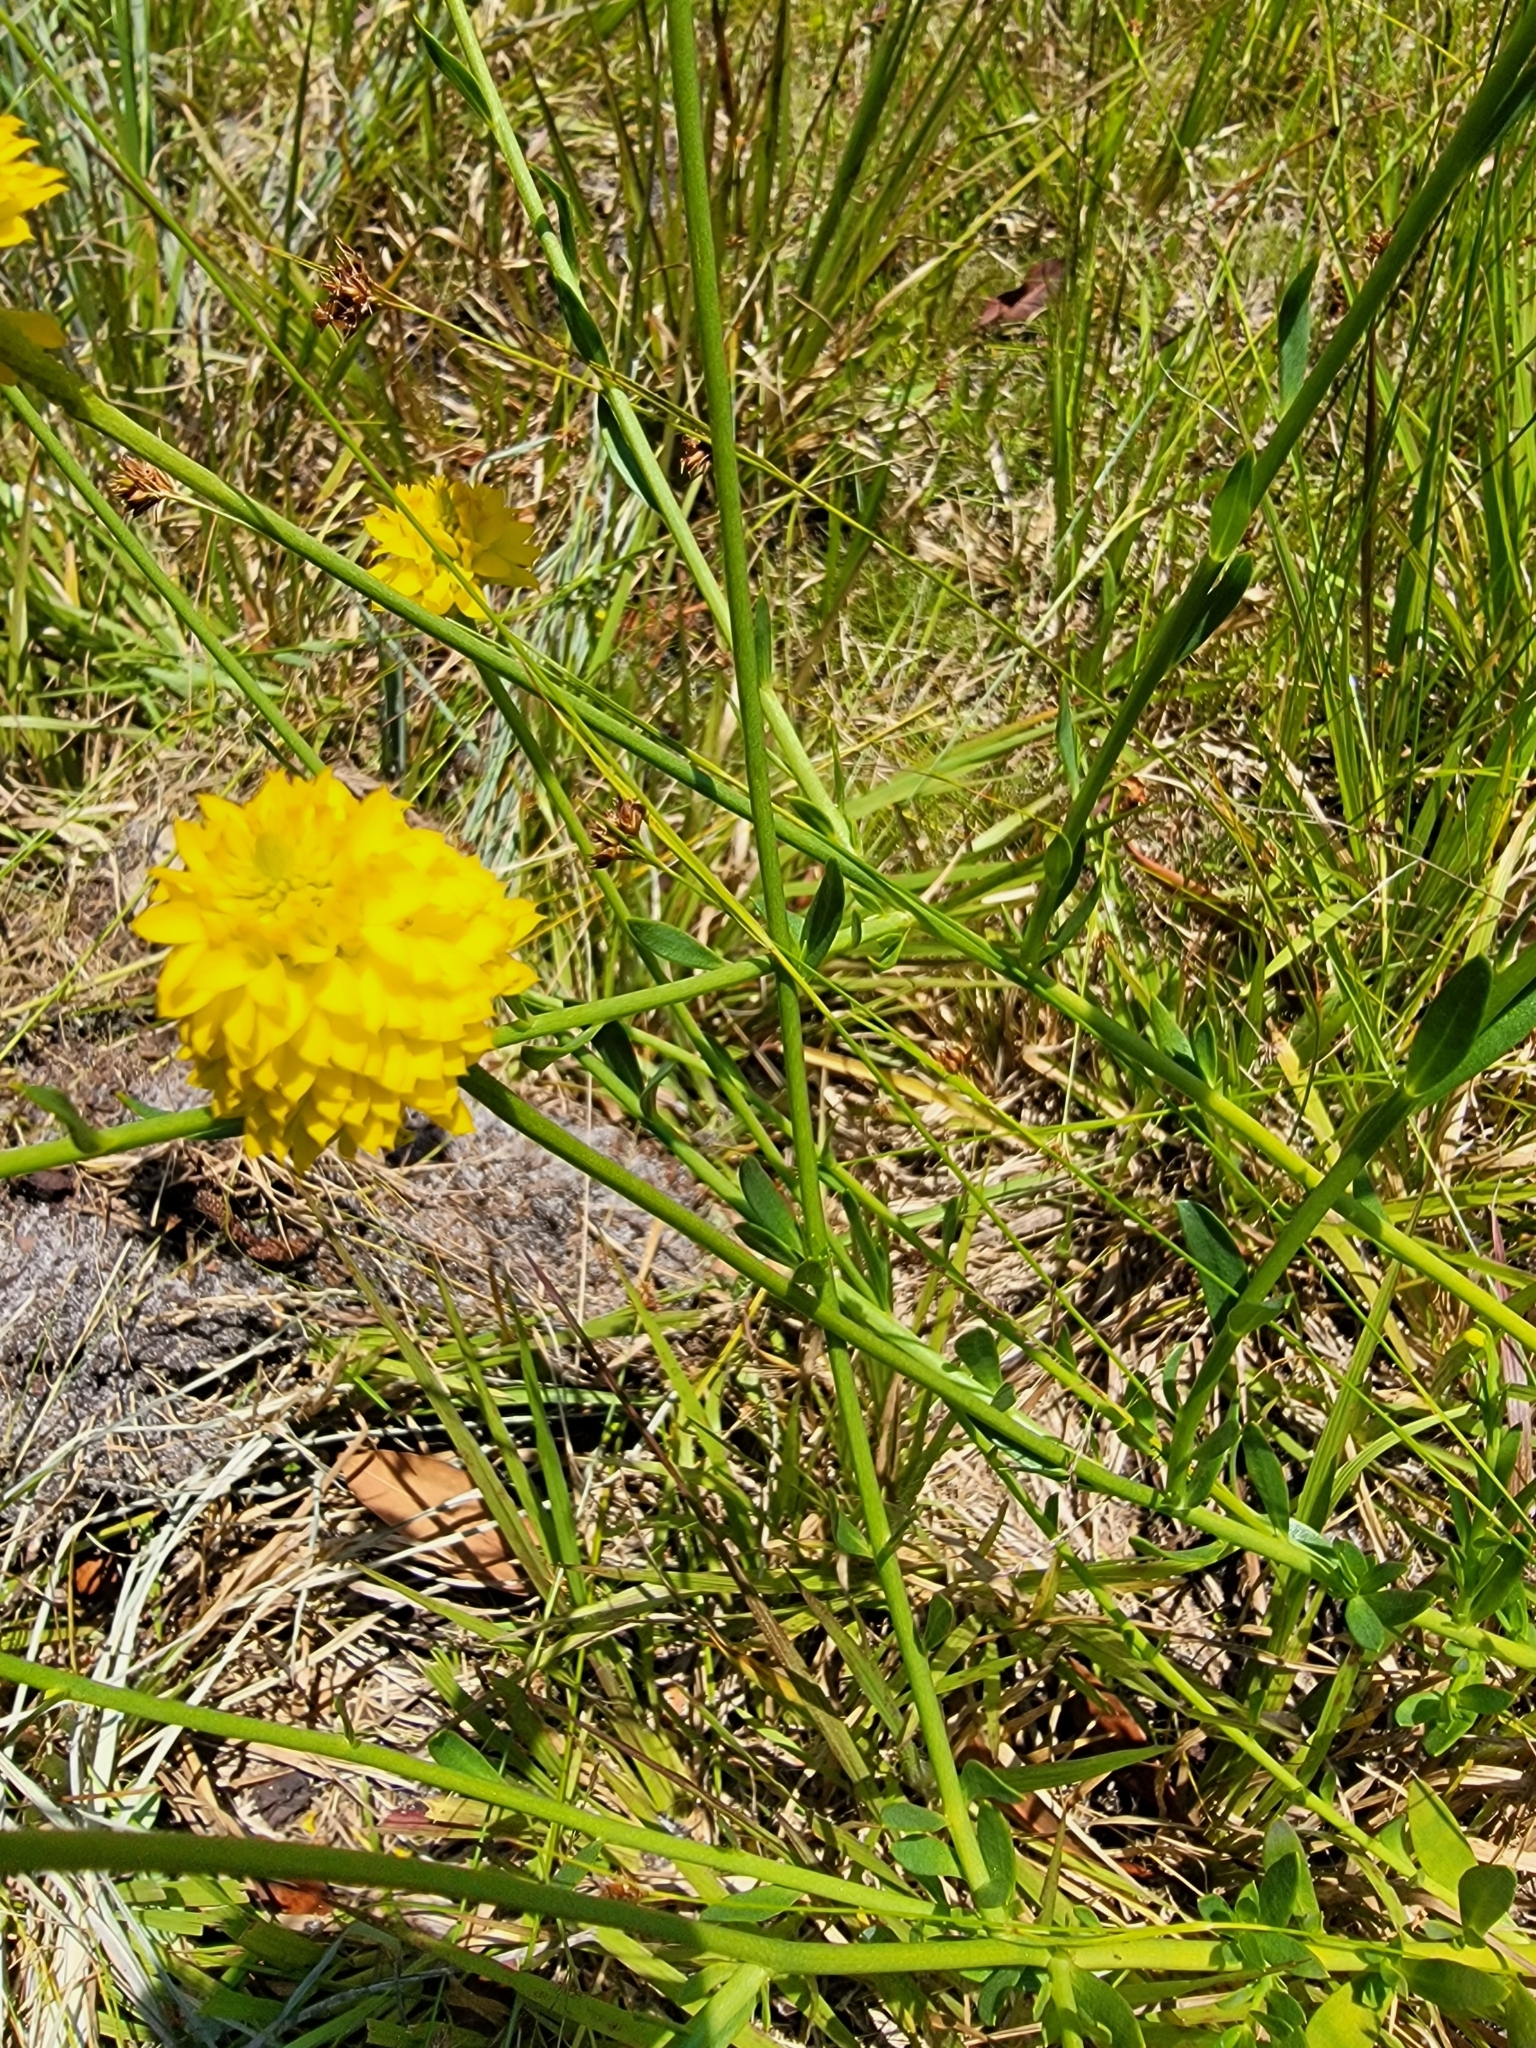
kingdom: Plantae
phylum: Tracheophyta
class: Magnoliopsida
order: Fabales
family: Polygalaceae
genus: Polygala
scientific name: Polygala rugelii
